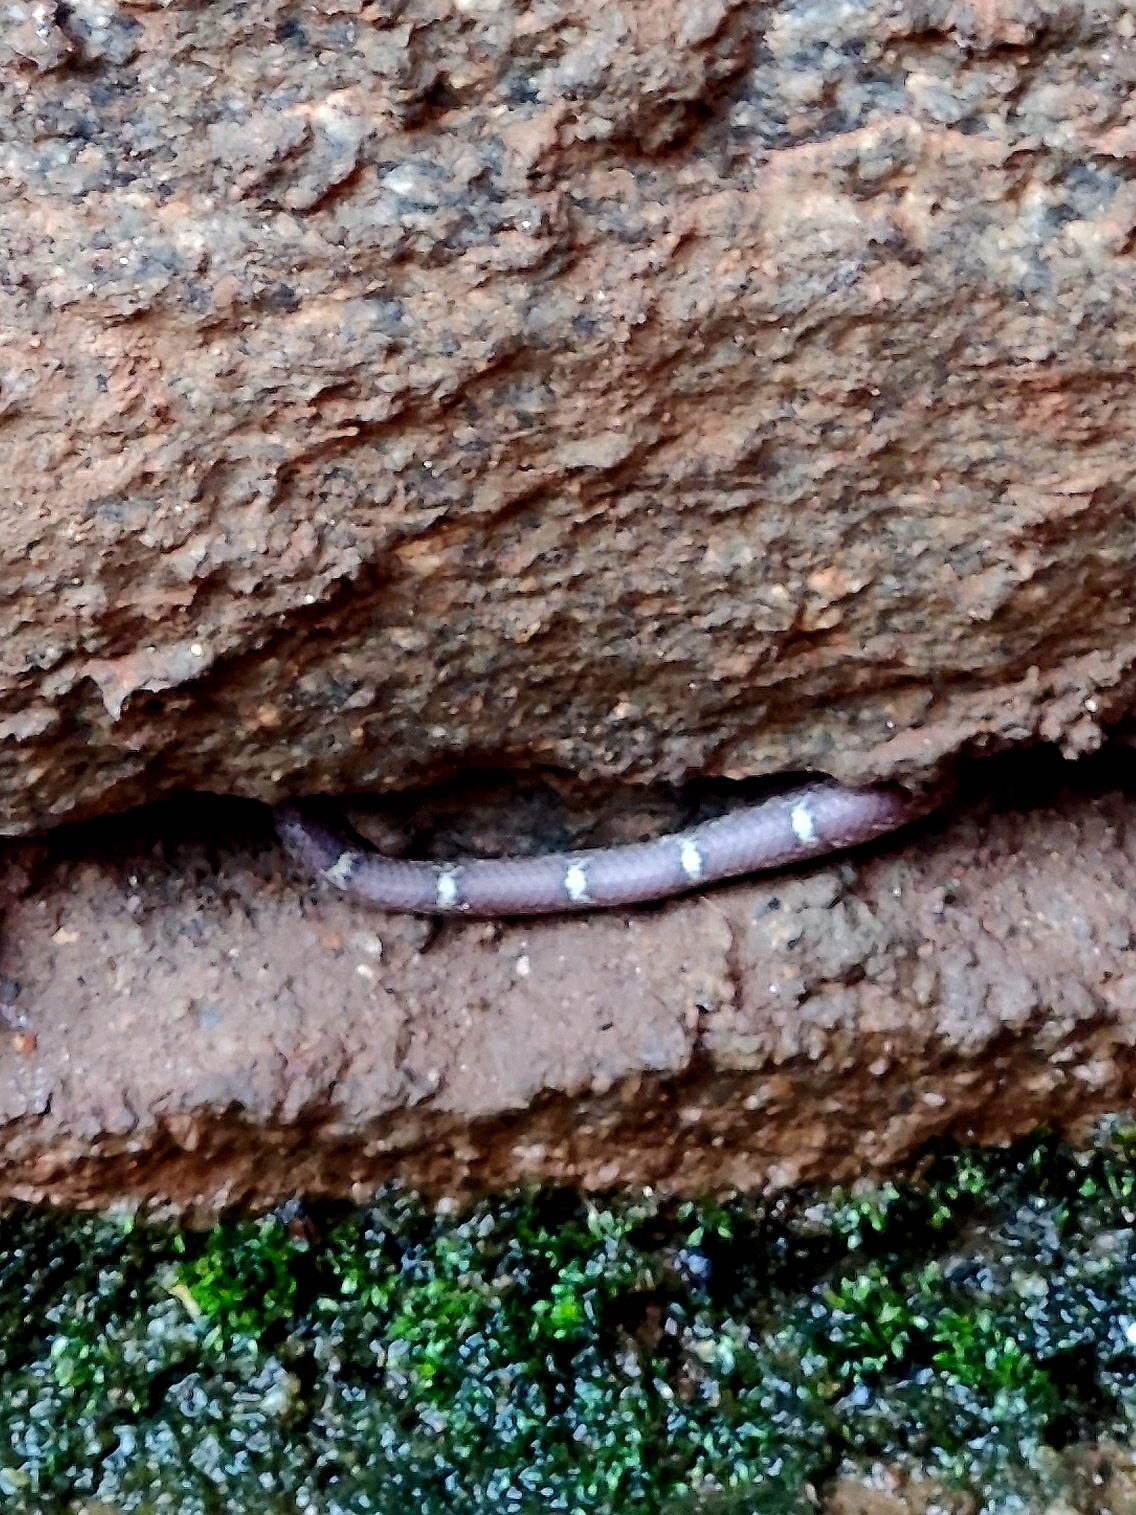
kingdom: Animalia
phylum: Chordata
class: Squamata
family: Colubridae
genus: Lycodon
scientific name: Lycodon fasciolatus
